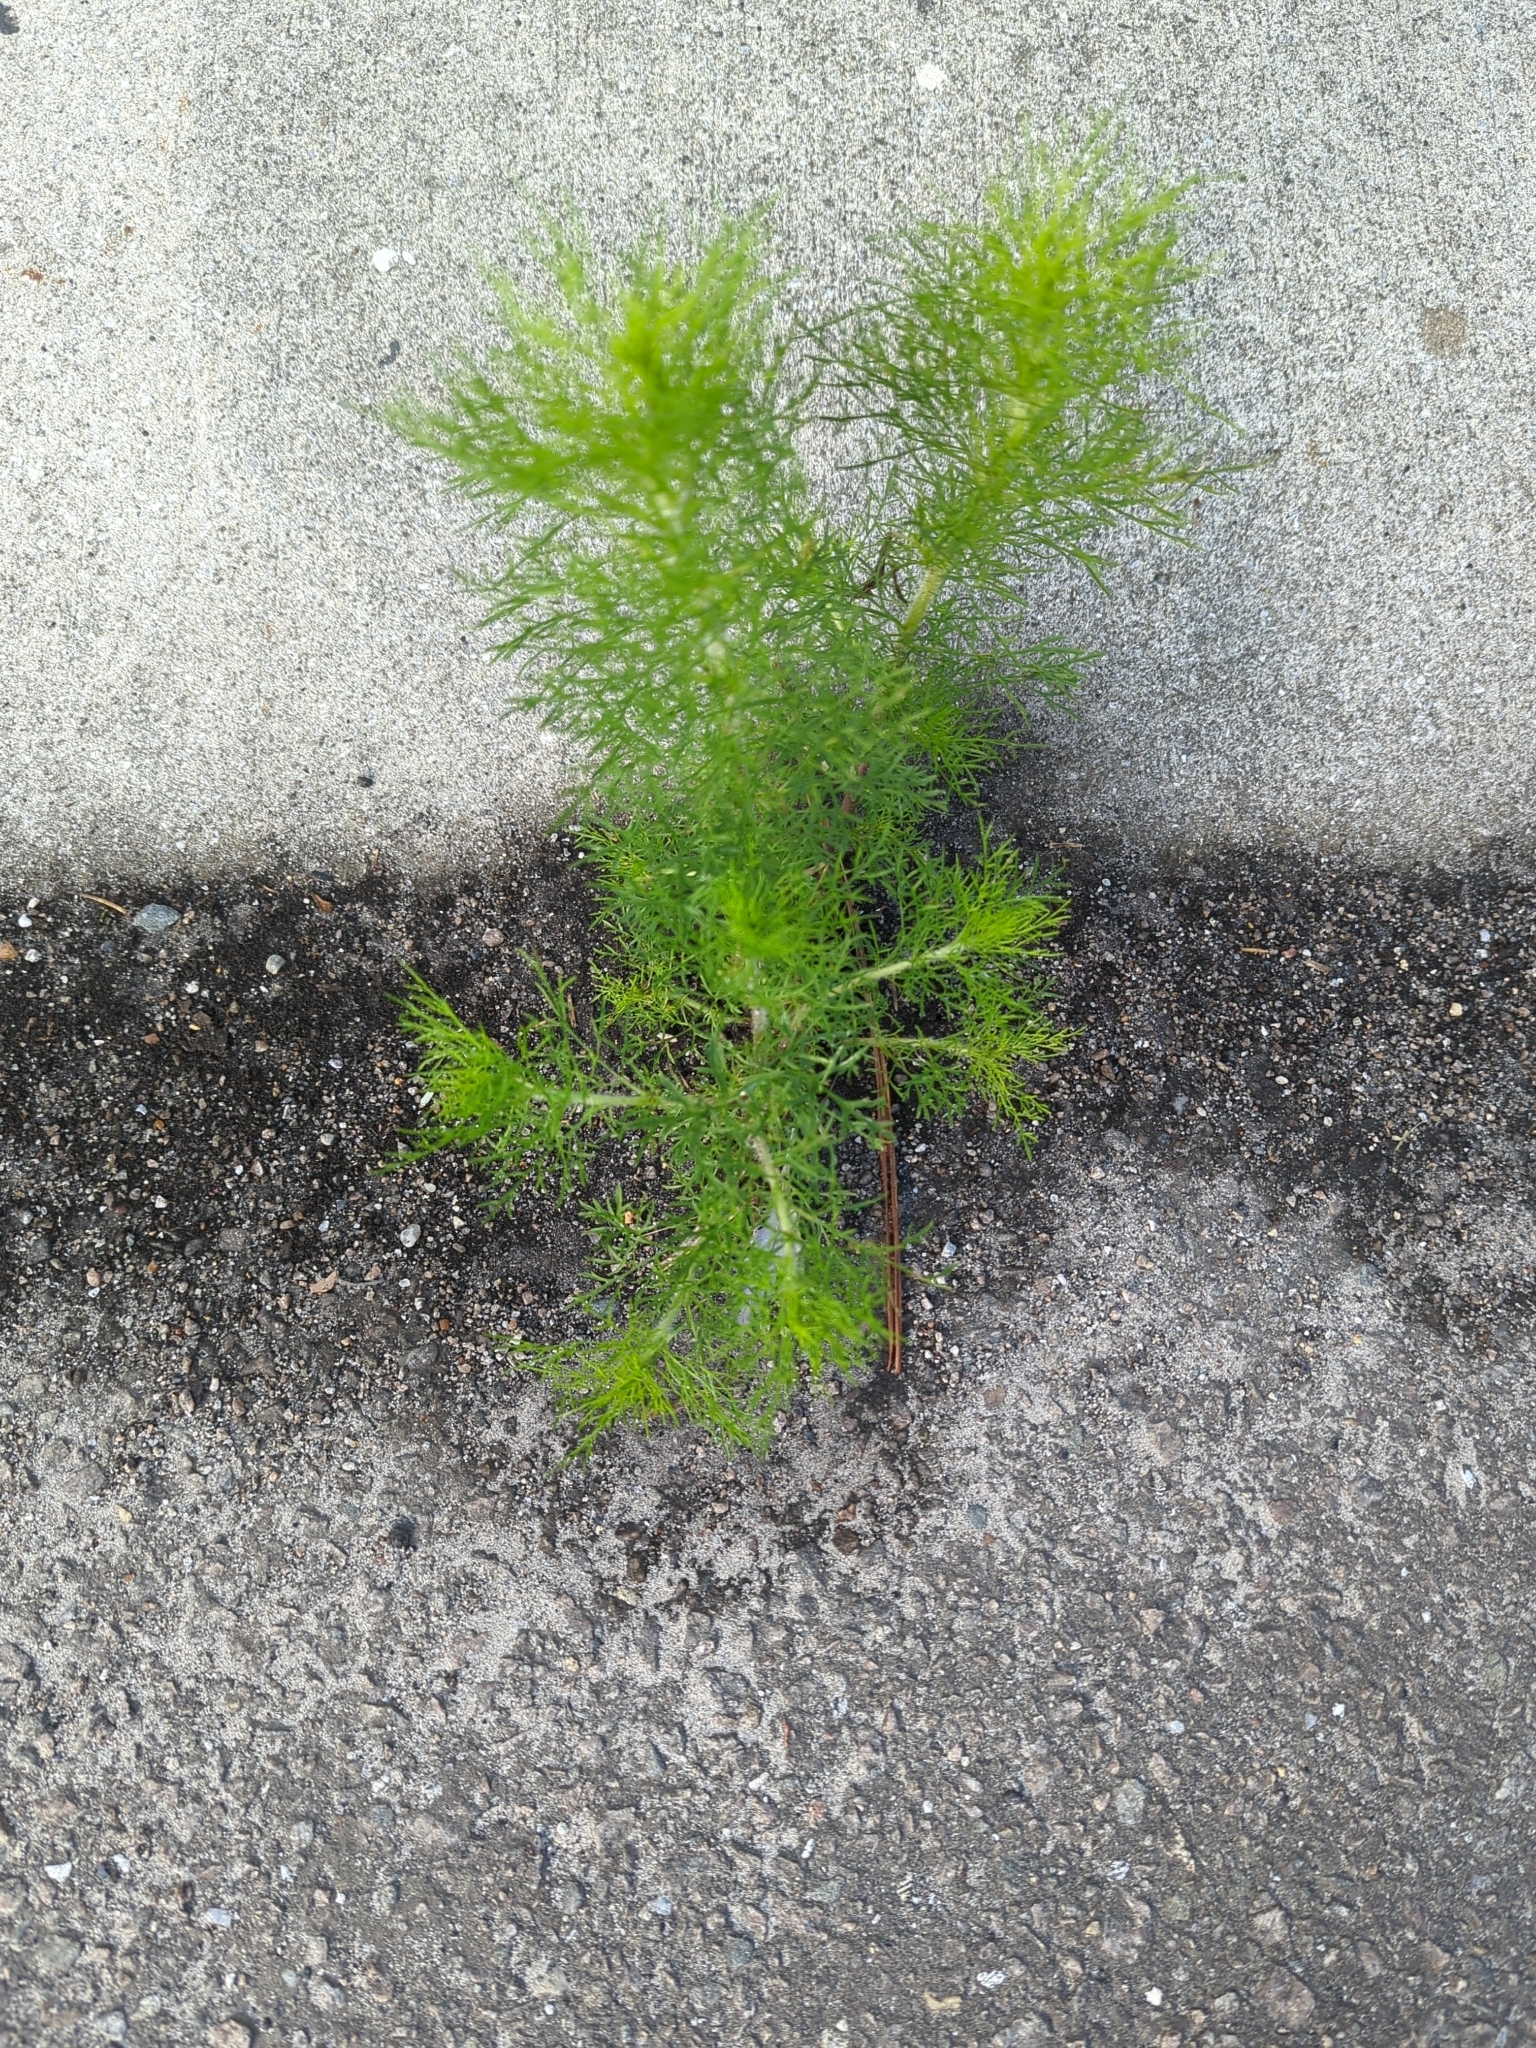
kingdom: Plantae
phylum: Tracheophyta
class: Magnoliopsida
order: Asterales
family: Asteraceae
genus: Eupatorium
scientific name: Eupatorium capillifolium
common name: Dog-fennel
